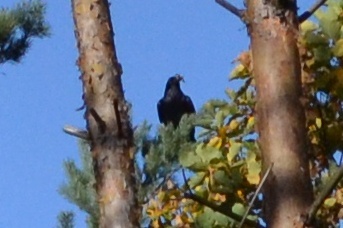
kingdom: Animalia
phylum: Chordata
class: Aves
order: Passeriformes
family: Corvidae
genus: Corvus
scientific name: Corvus corax
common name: Common raven
